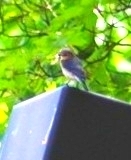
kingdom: Animalia
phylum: Chordata
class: Aves
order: Passeriformes
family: Turdidae
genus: Sialia
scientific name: Sialia sialis
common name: Eastern bluebird
